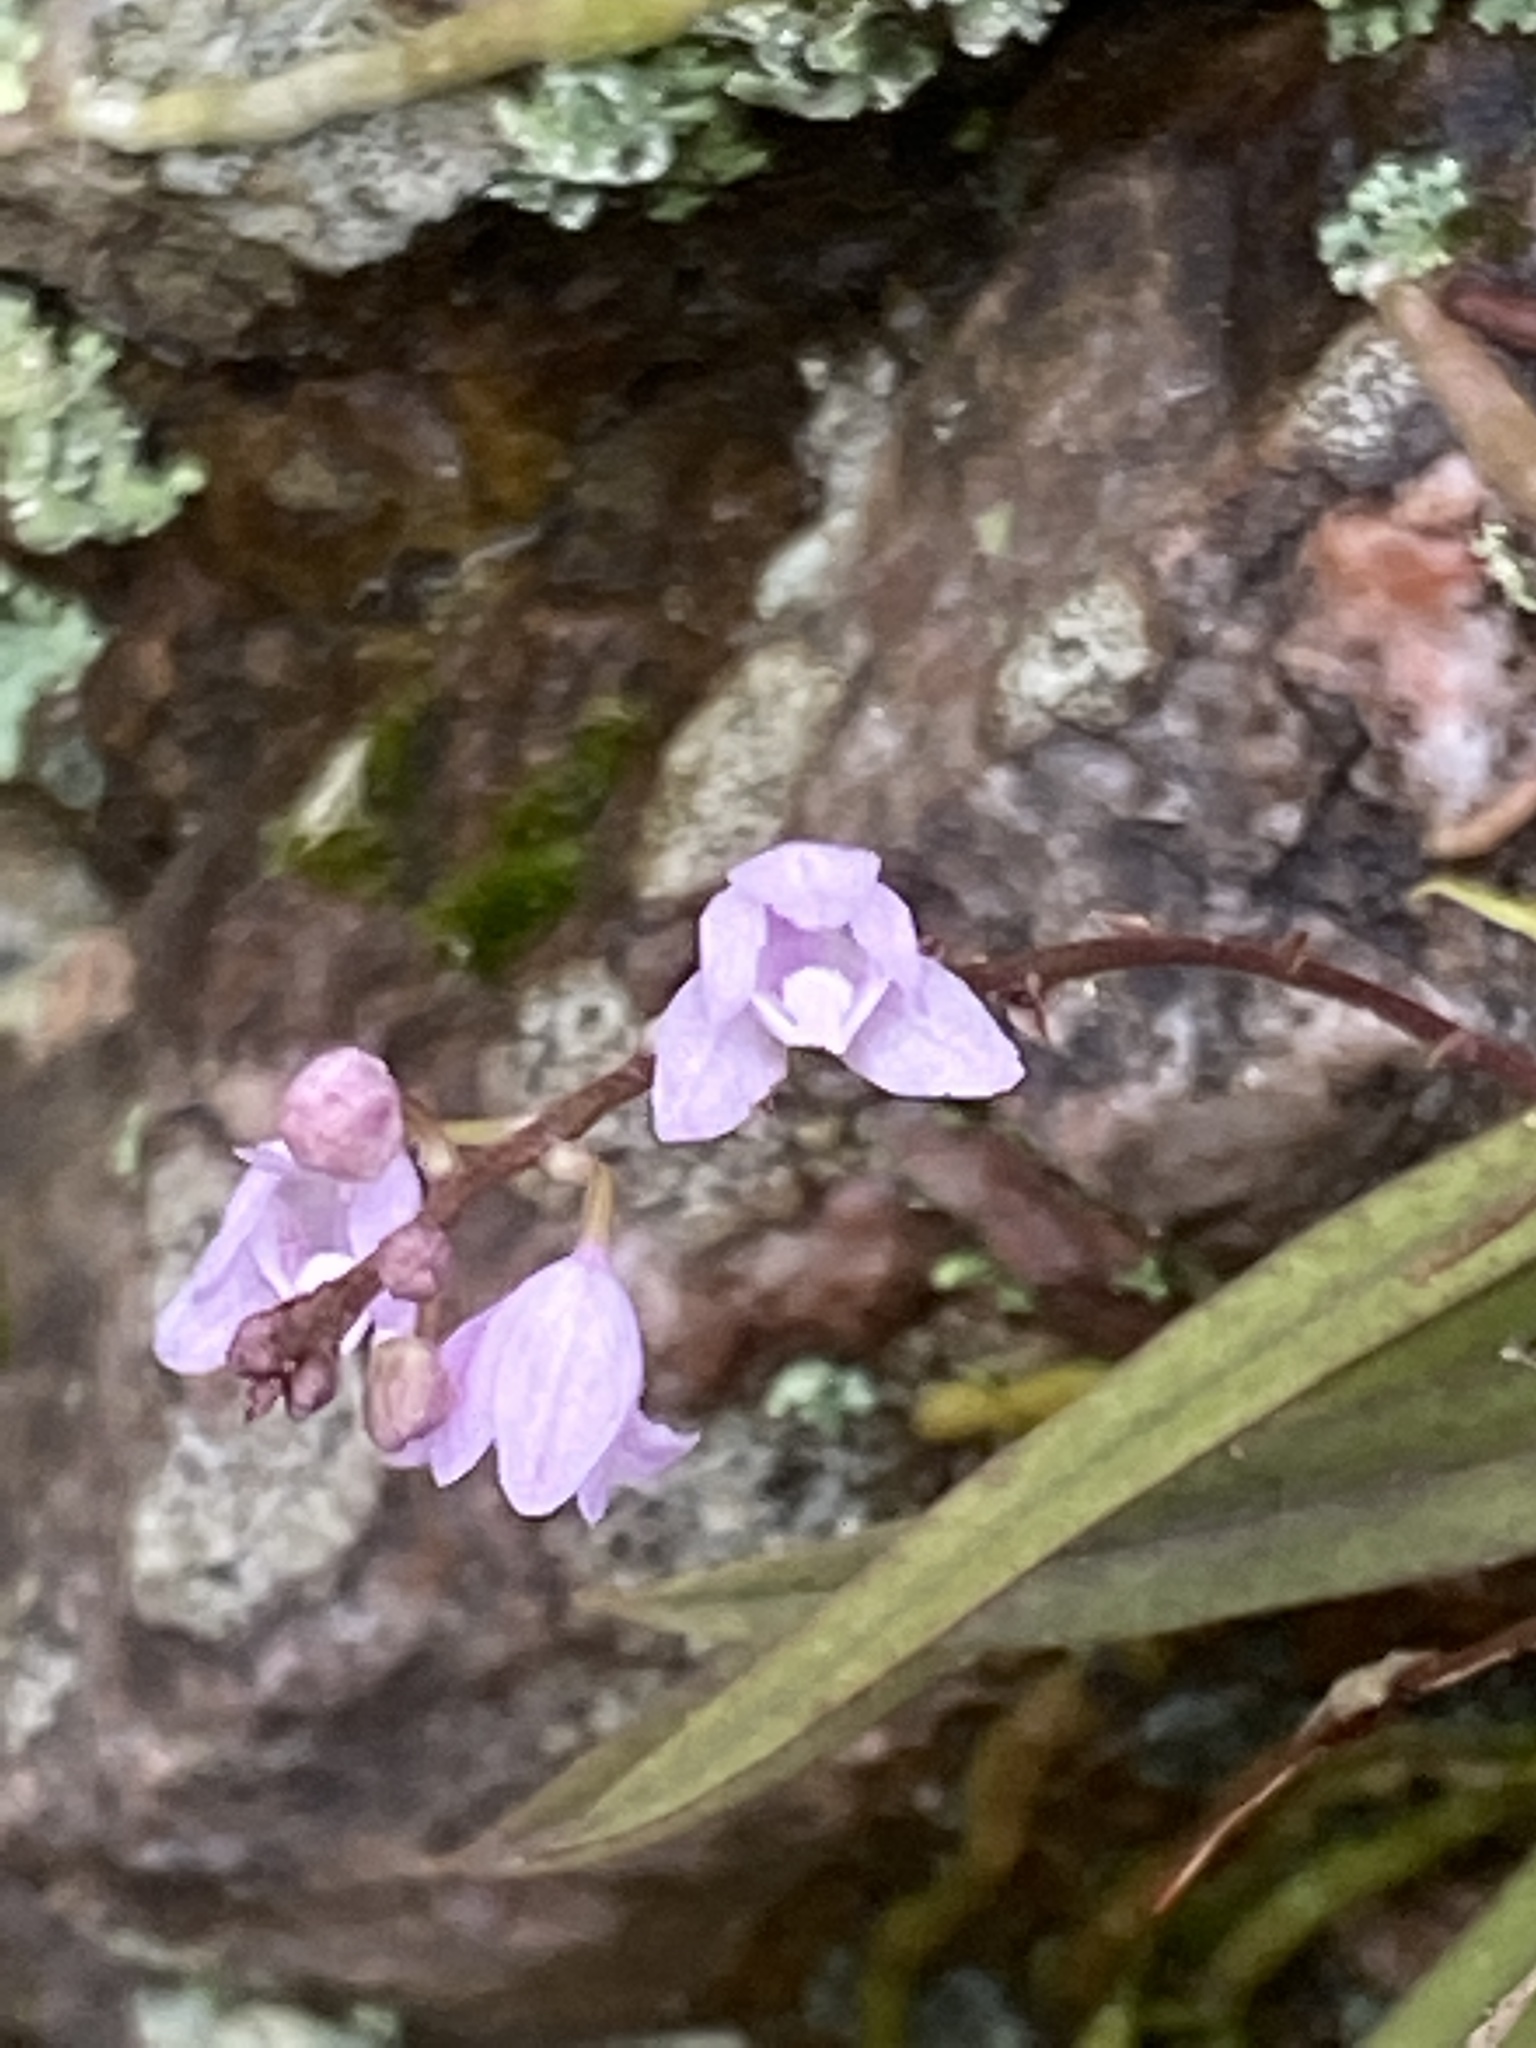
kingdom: Plantae
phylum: Tracheophyta
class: Liliopsida
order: Asparagales
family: Orchidaceae
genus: Sarcochilus
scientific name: Sarcochilus ceciliae
